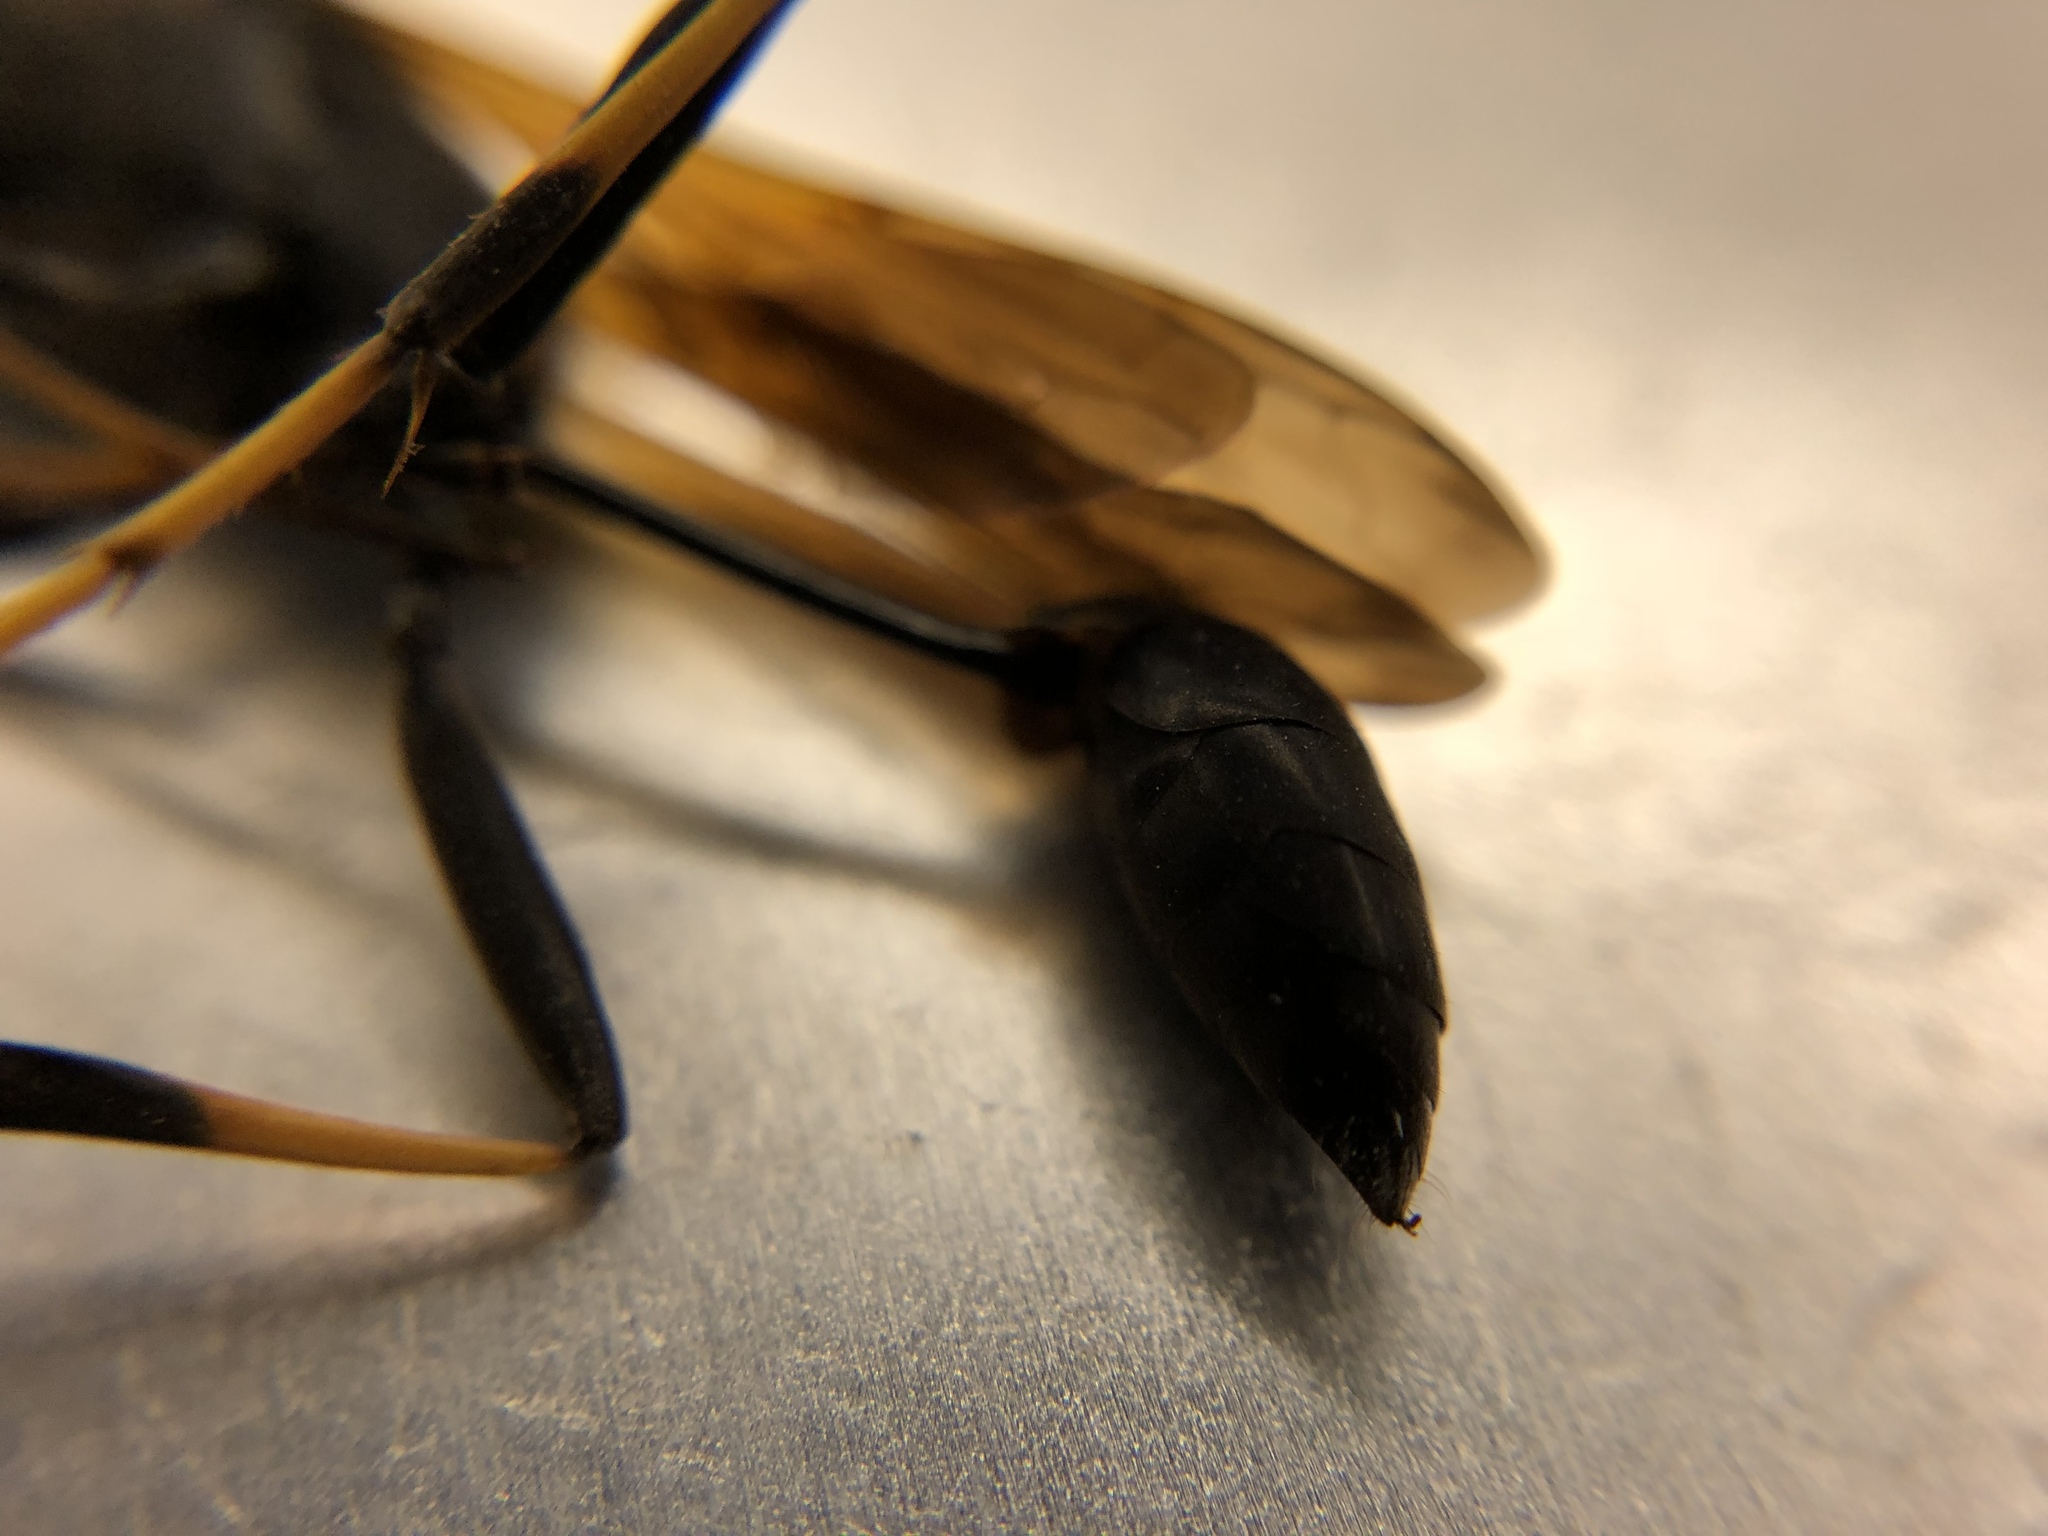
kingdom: Animalia
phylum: Arthropoda
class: Insecta
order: Hymenoptera
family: Sphecidae
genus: Sceliphron
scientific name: Sceliphron caementarium
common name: Mud dauber
